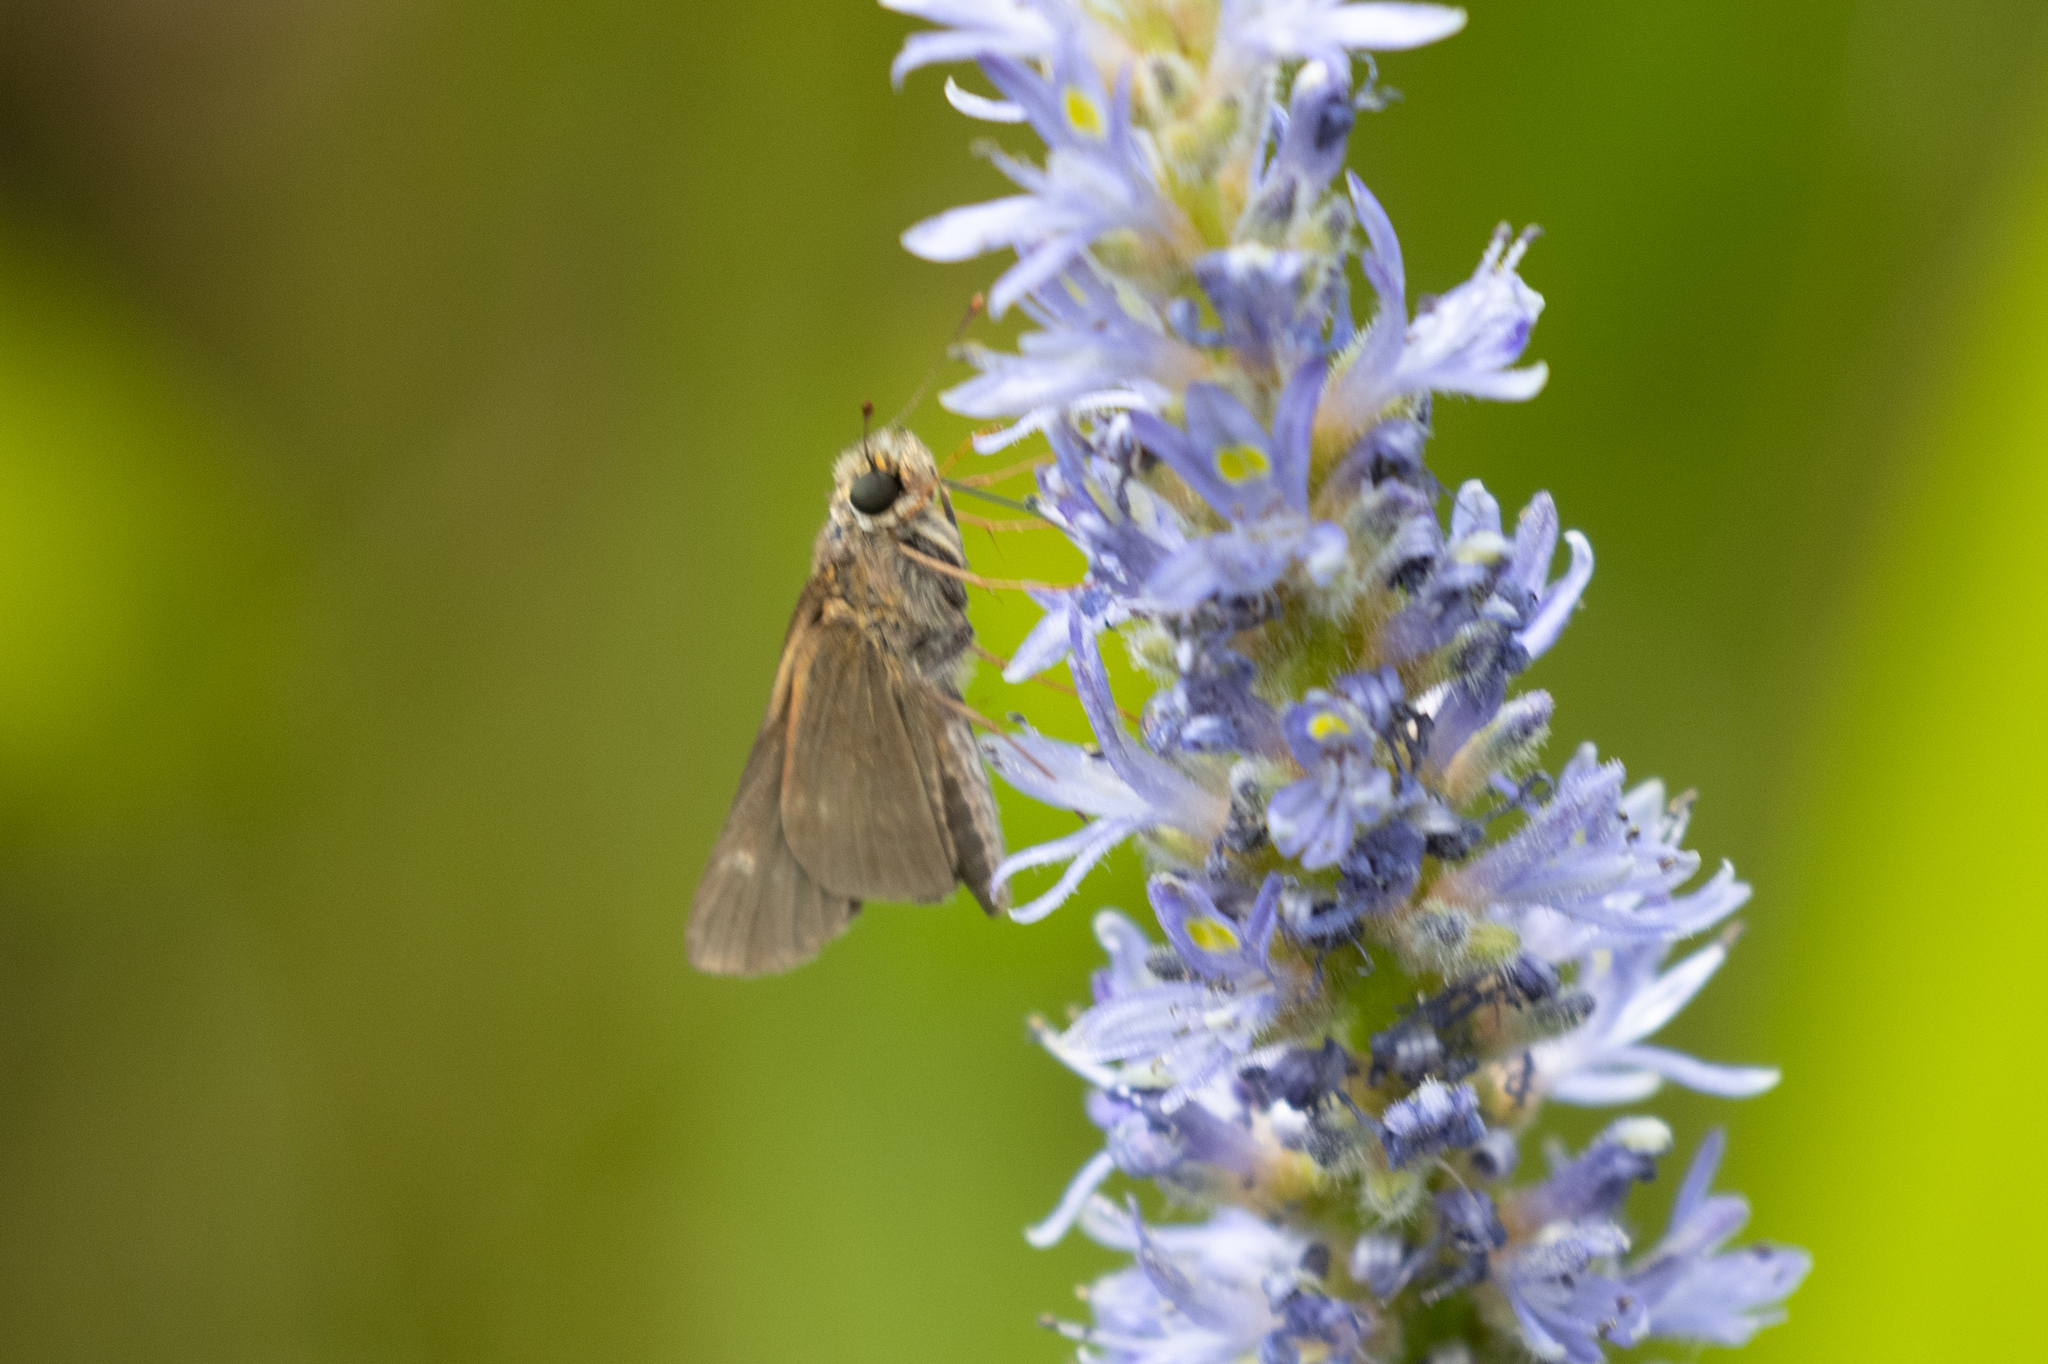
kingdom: Animalia
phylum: Arthropoda
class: Insecta
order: Lepidoptera
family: Hesperiidae
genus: Panoquina
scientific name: Panoquina ocola
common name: Ocola skipper
